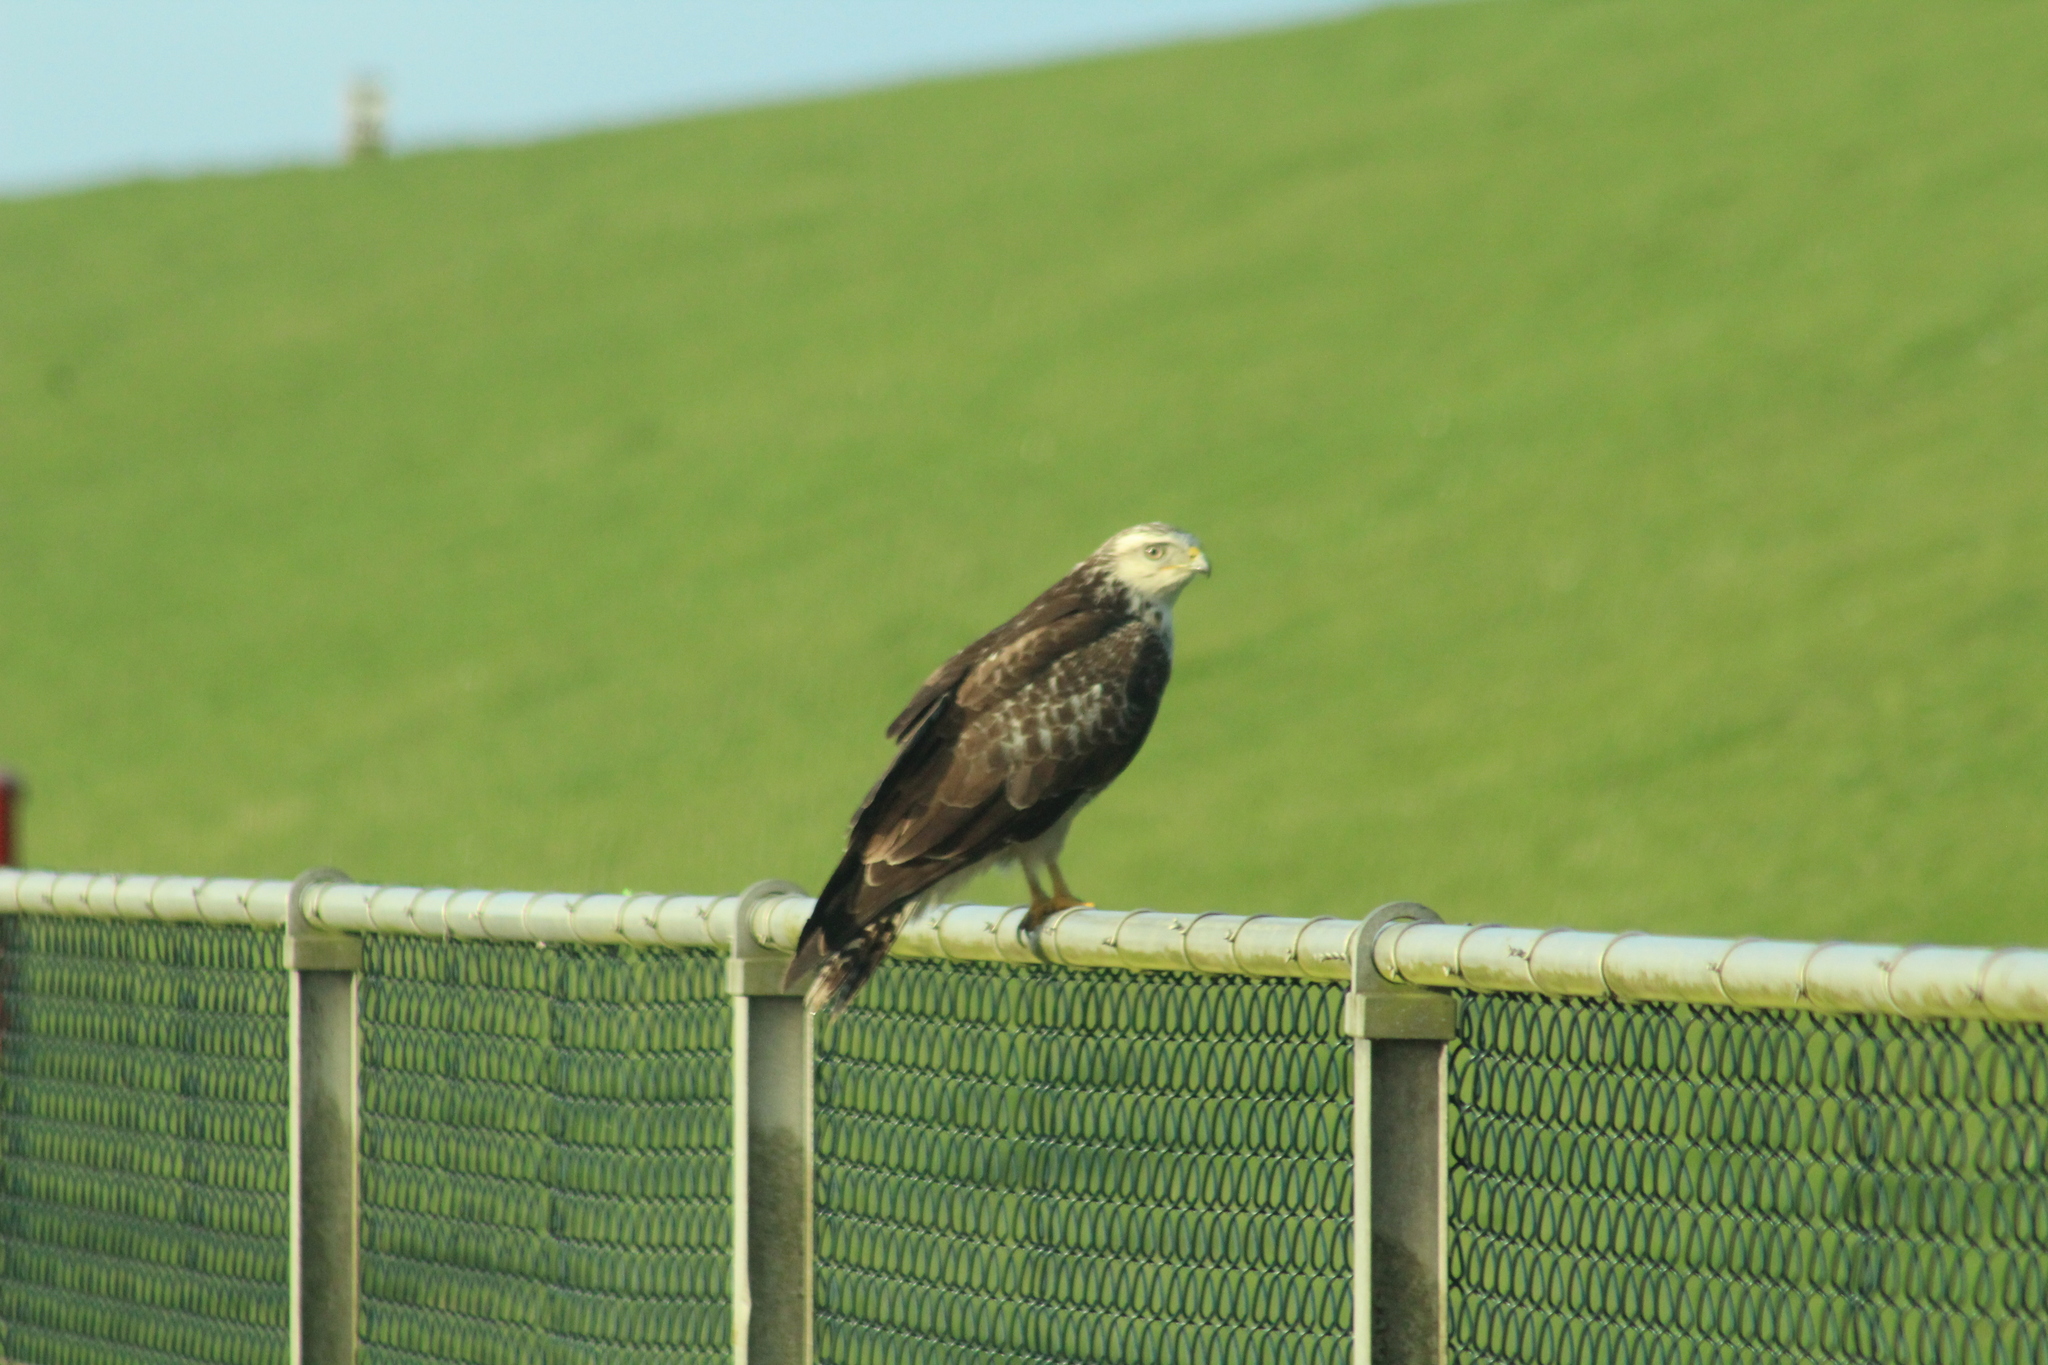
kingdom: Animalia
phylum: Chordata
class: Aves
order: Accipitriformes
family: Accipitridae
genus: Buteo
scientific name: Buteo buteo
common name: Common buzzard
